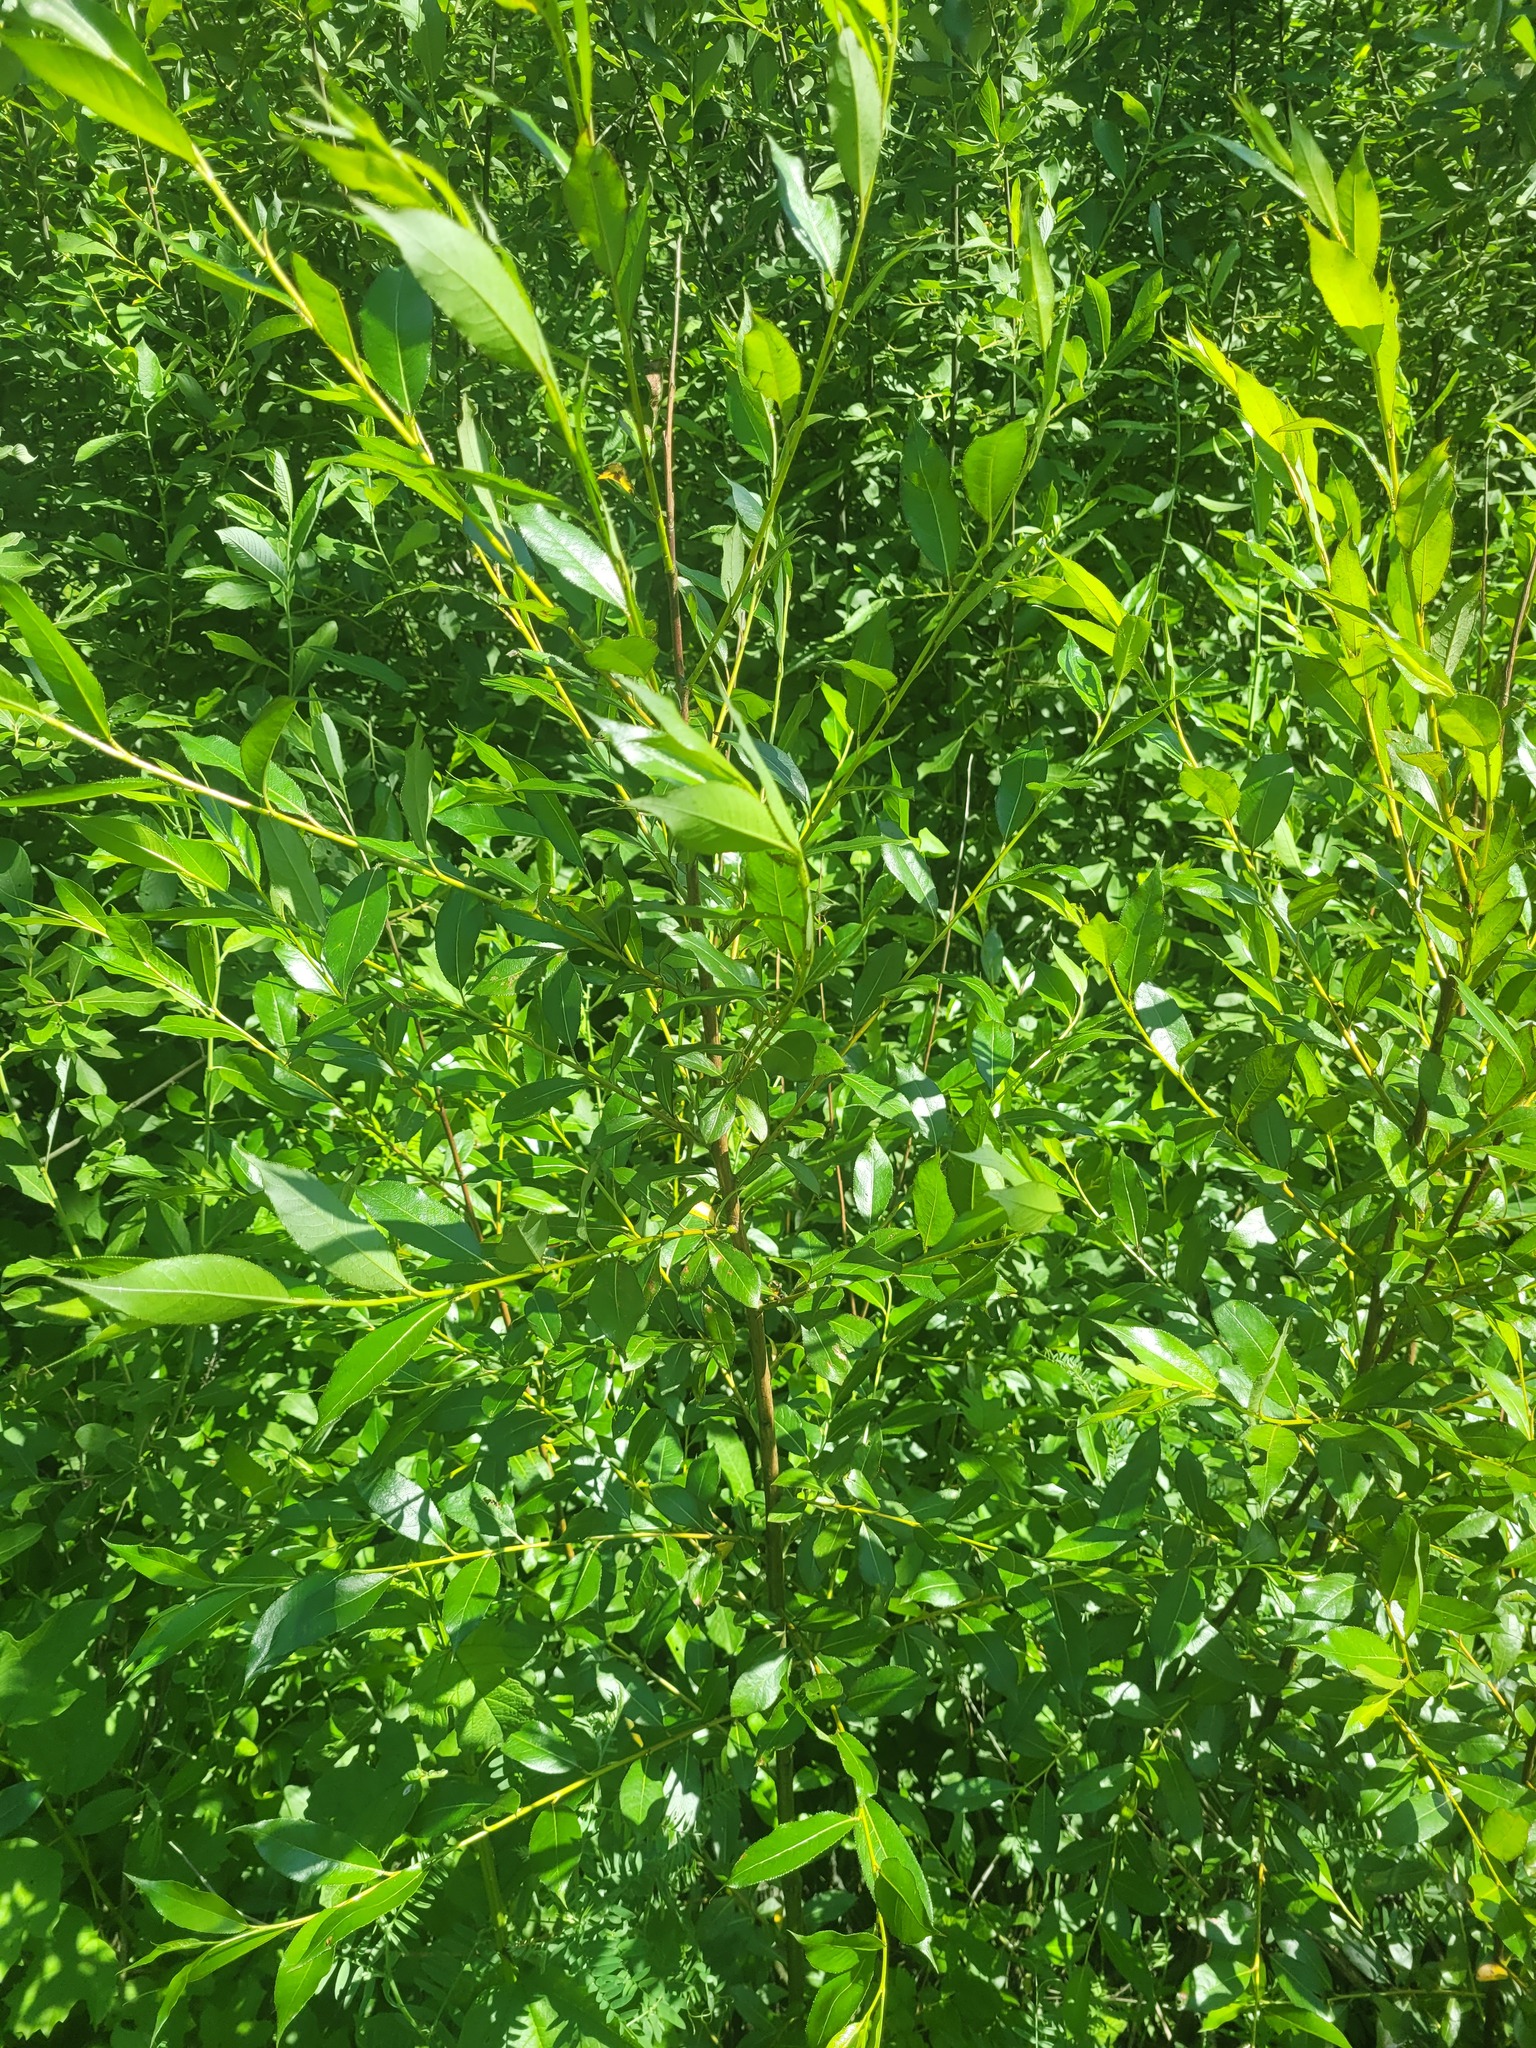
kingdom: Plantae
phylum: Tracheophyta
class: Magnoliopsida
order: Malpighiales
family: Salicaceae
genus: Salix
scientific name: Salix pentandra
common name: Bay willow
